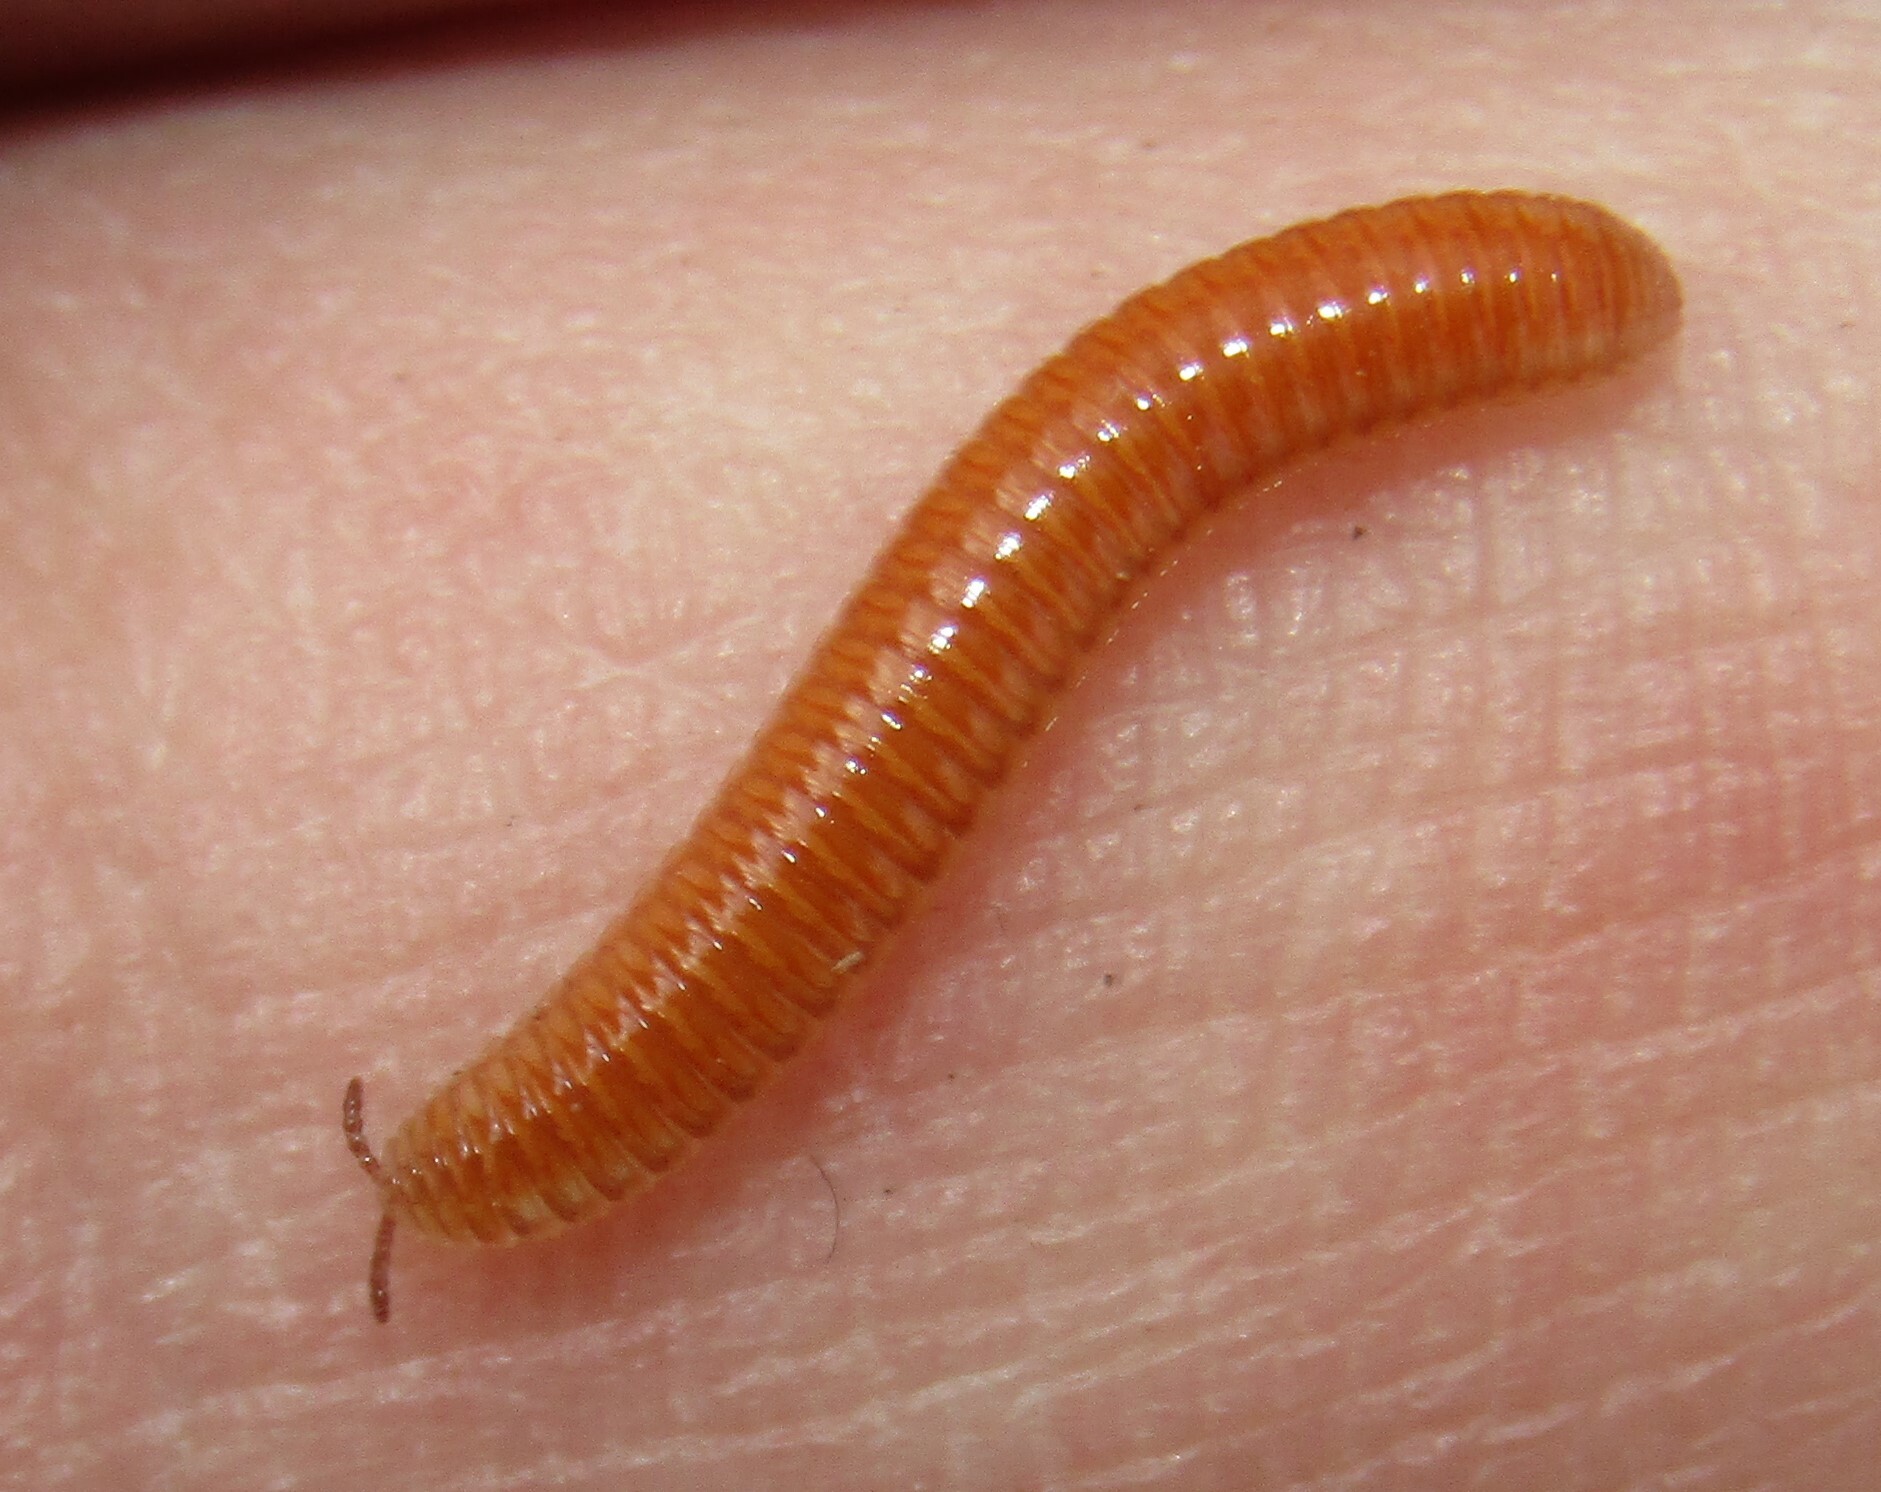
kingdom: Animalia
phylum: Arthropoda
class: Diplopoda
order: Polyzoniida
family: Polyzoniidae
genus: Polyzonium
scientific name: Polyzonium germanicum
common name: Boring millipede
